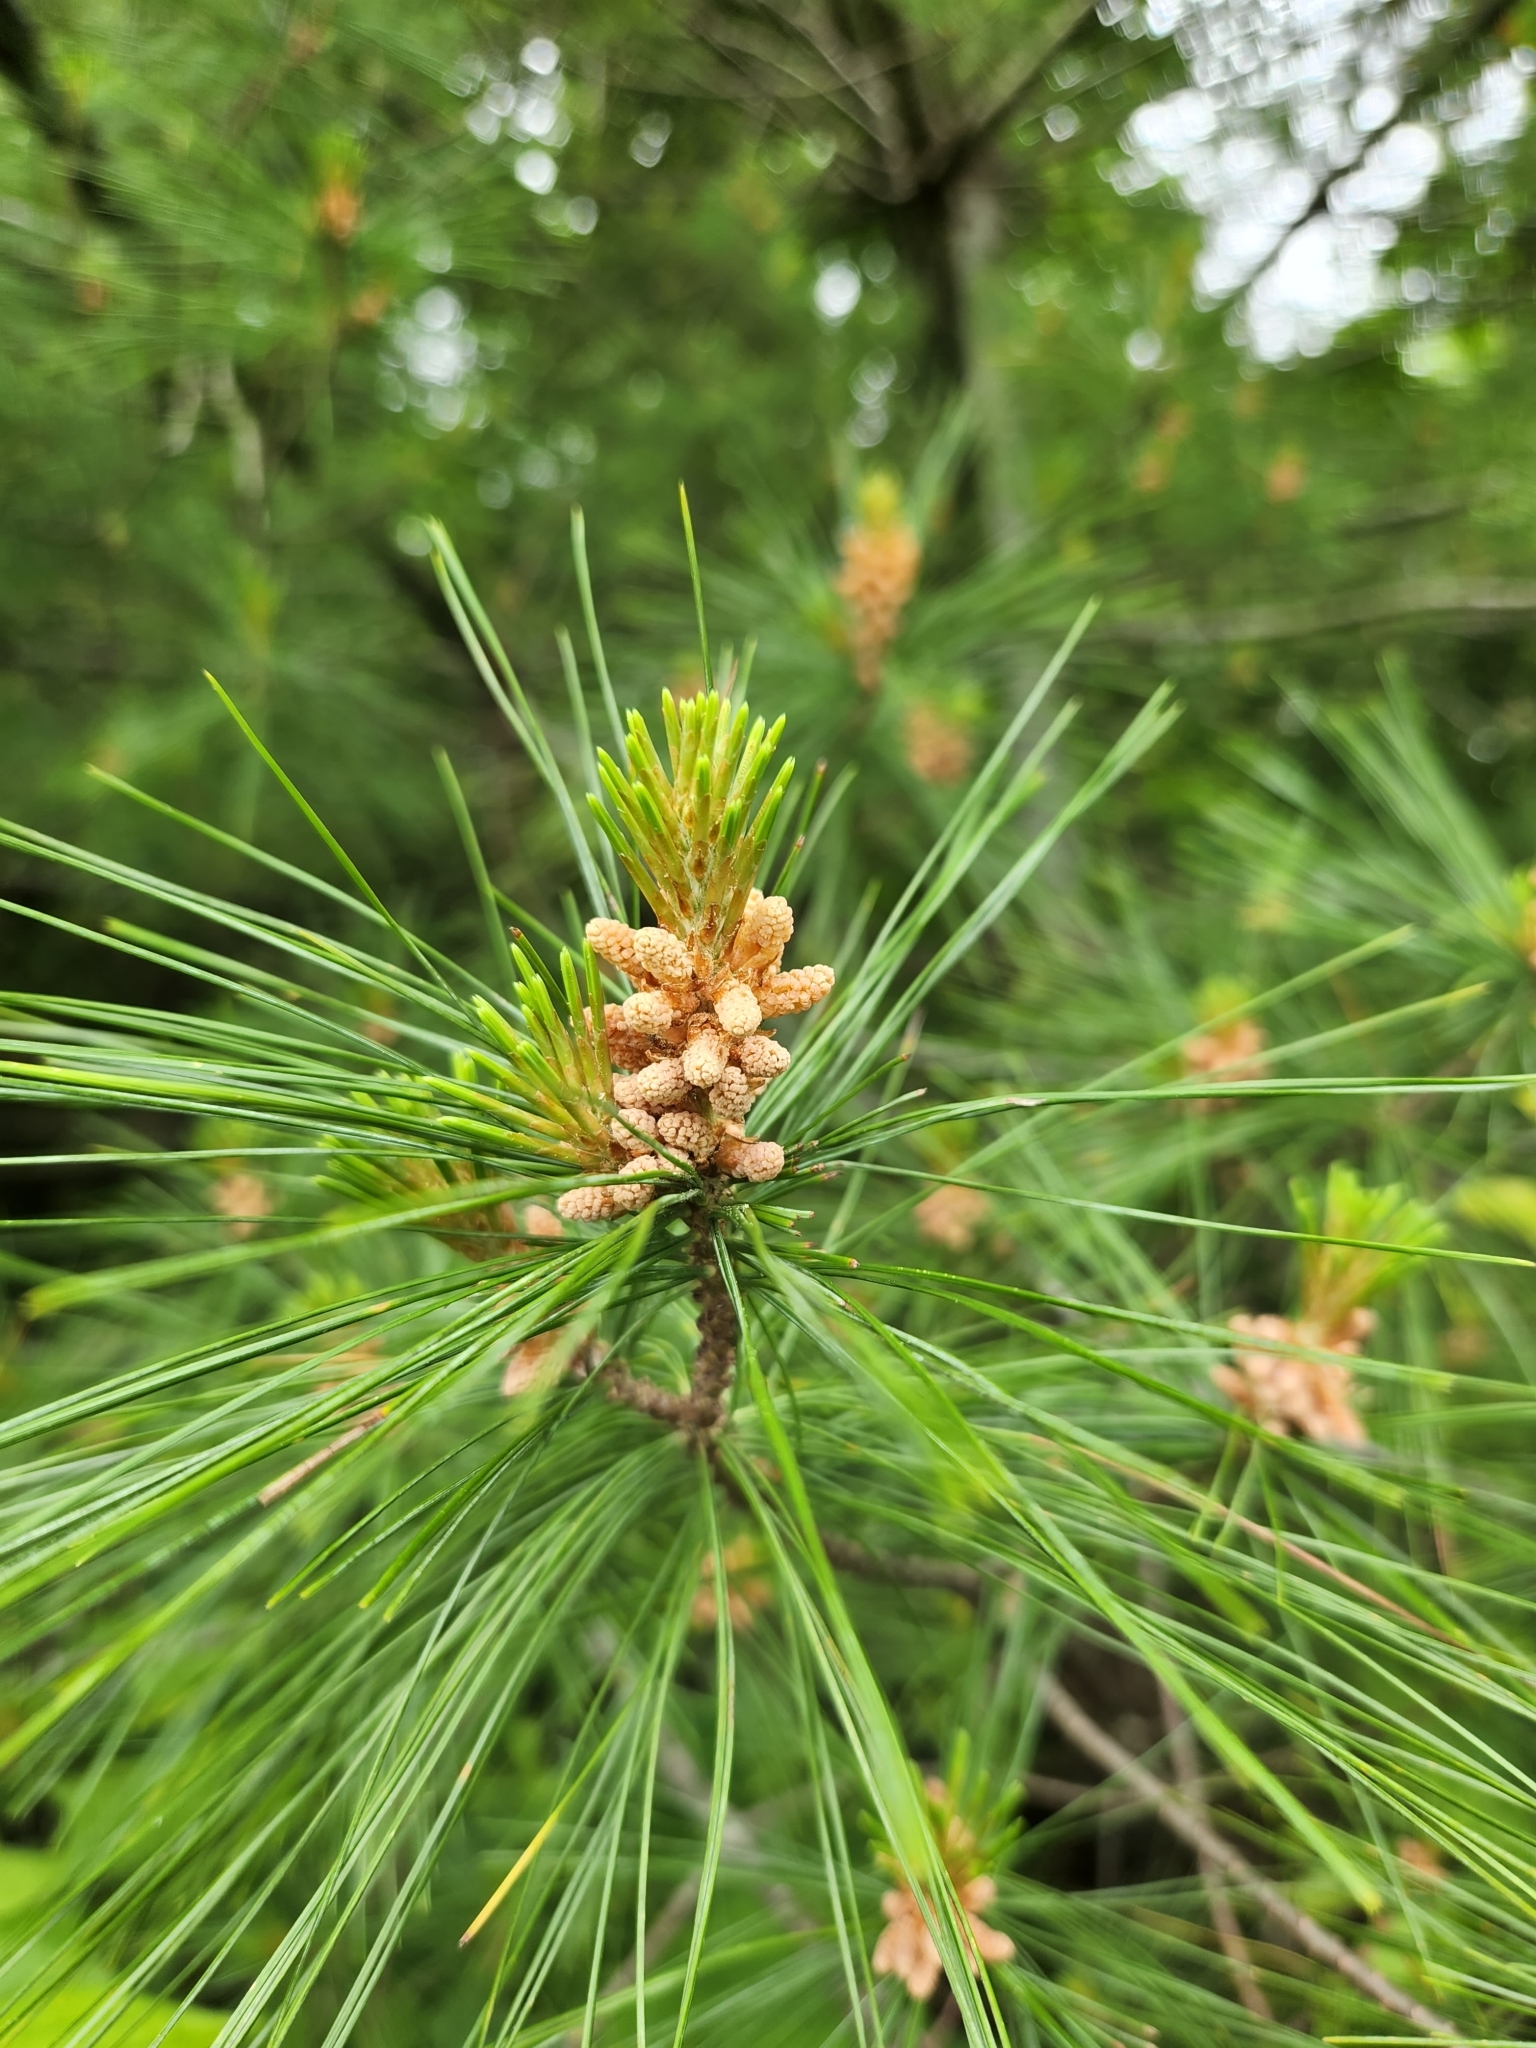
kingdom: Plantae
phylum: Tracheophyta
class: Pinopsida
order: Pinales
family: Pinaceae
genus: Pinus
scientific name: Pinus strobus
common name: Weymouth pine
